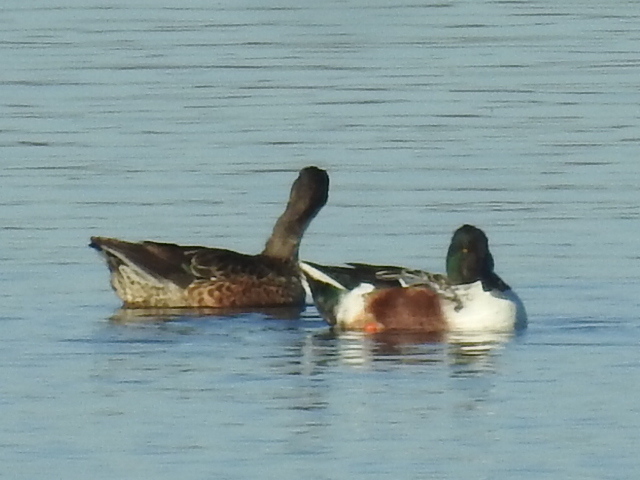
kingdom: Animalia
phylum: Chordata
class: Aves
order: Anseriformes
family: Anatidae
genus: Spatula
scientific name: Spatula clypeata
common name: Northern shoveler
